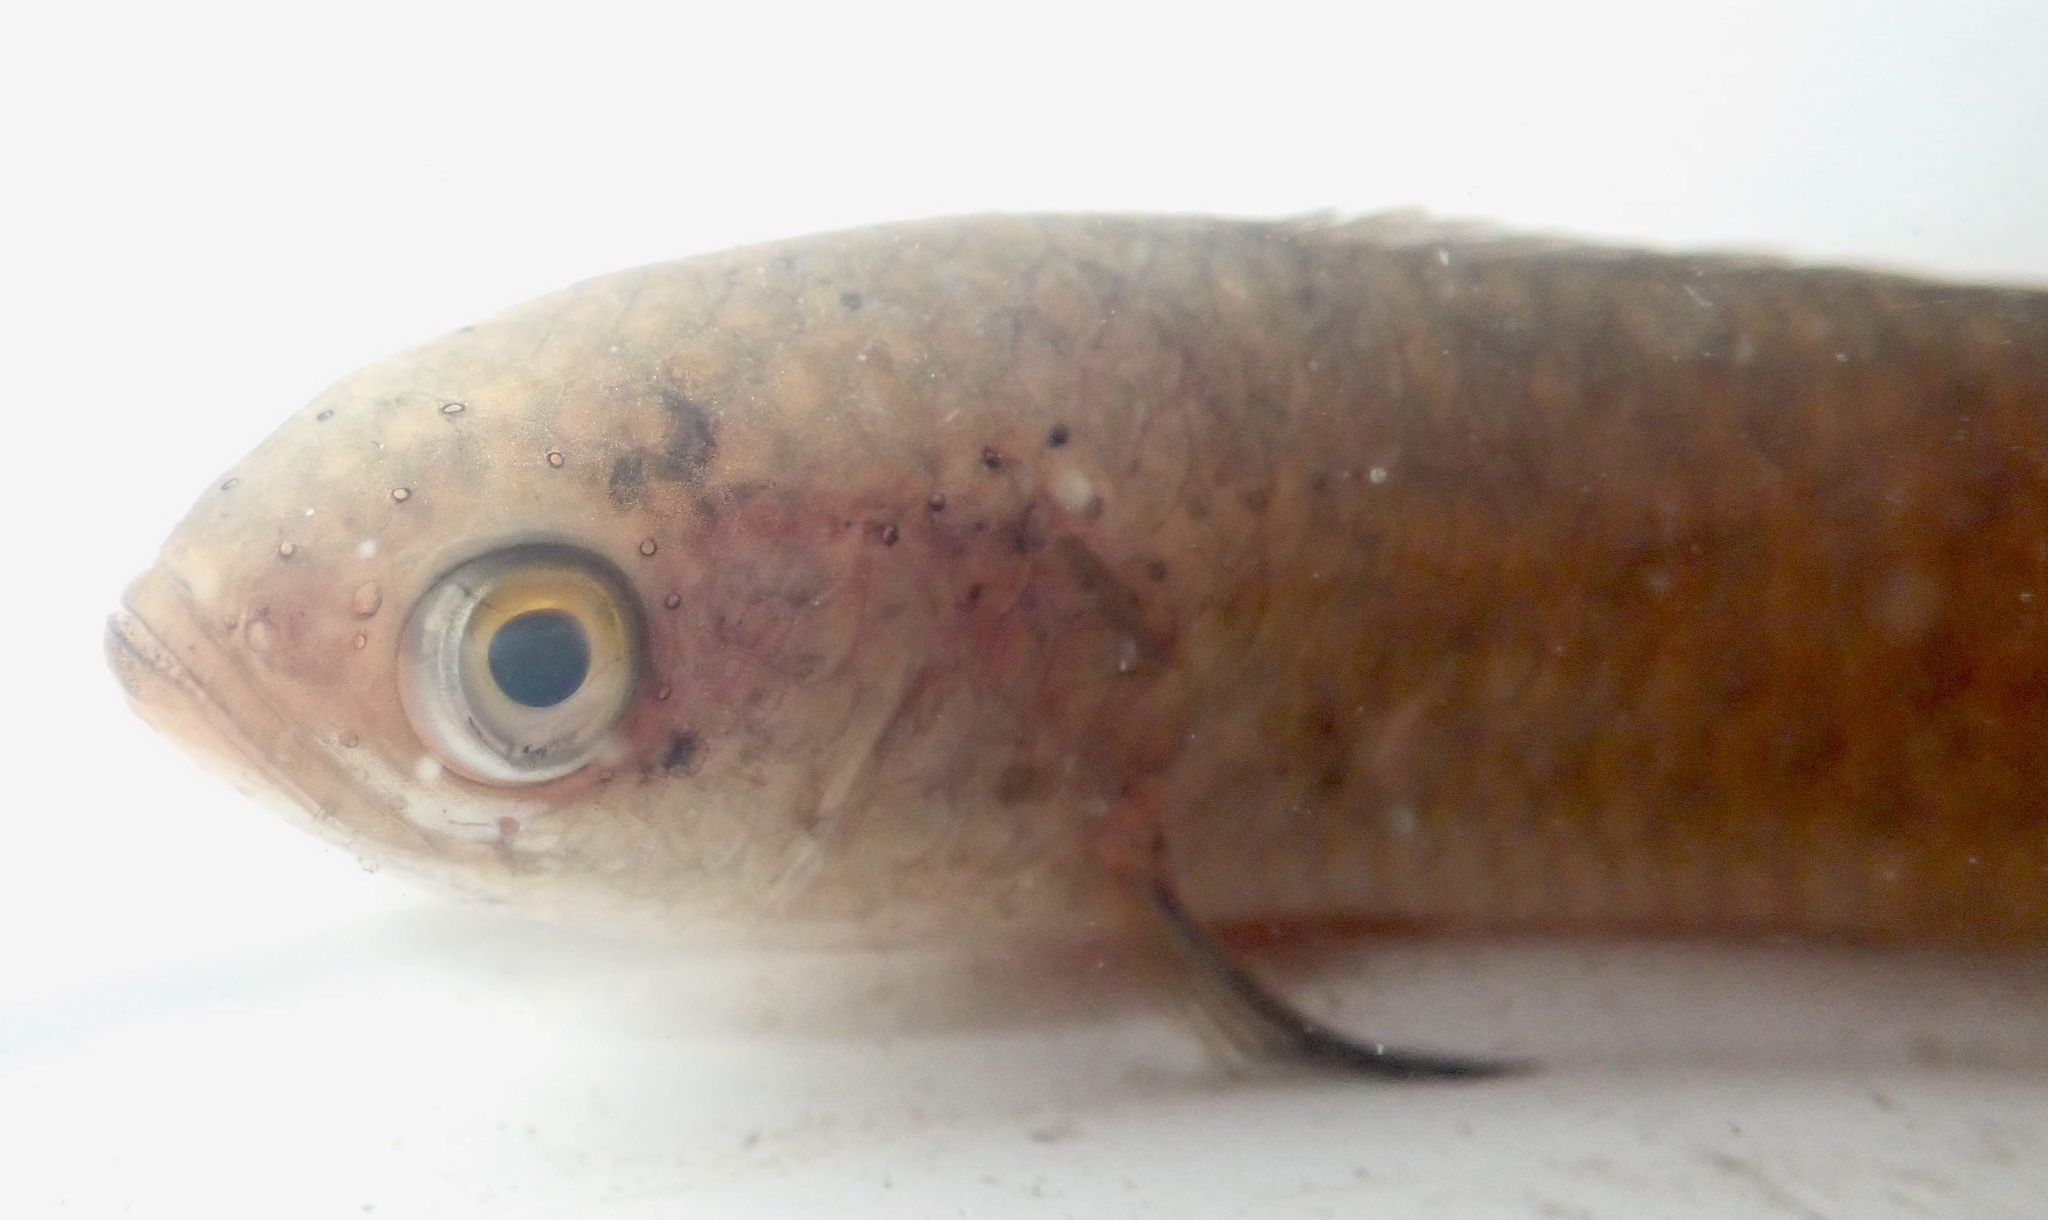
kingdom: Animalia
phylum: Chordata
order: Perciformes
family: Anabantidae
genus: Ctenopoma
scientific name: Ctenopoma multispine
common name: Manyspined climbing perch
